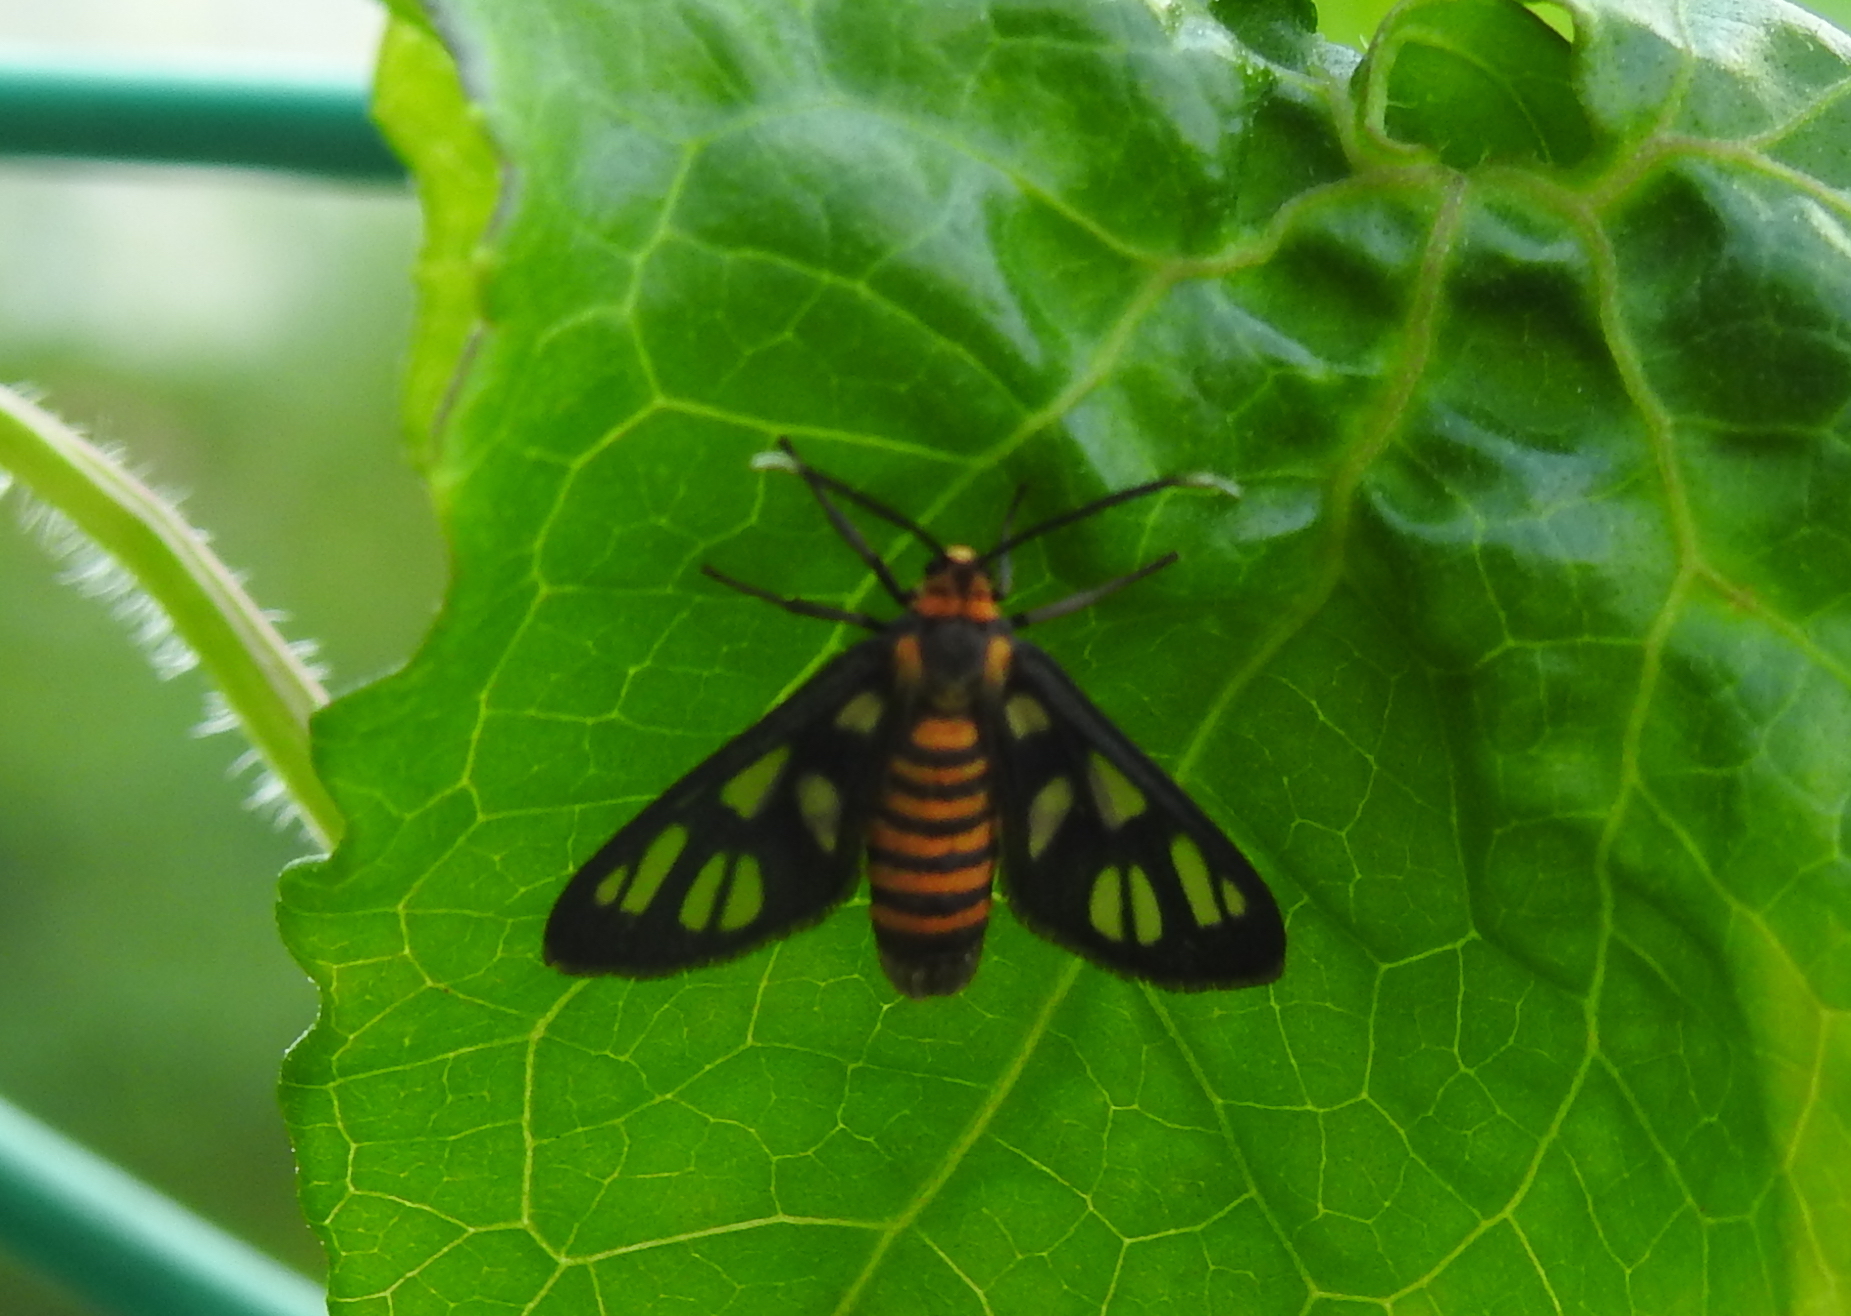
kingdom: Animalia
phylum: Arthropoda
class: Insecta
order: Lepidoptera
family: Erebidae
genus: Amata
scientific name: Amata huebneri
